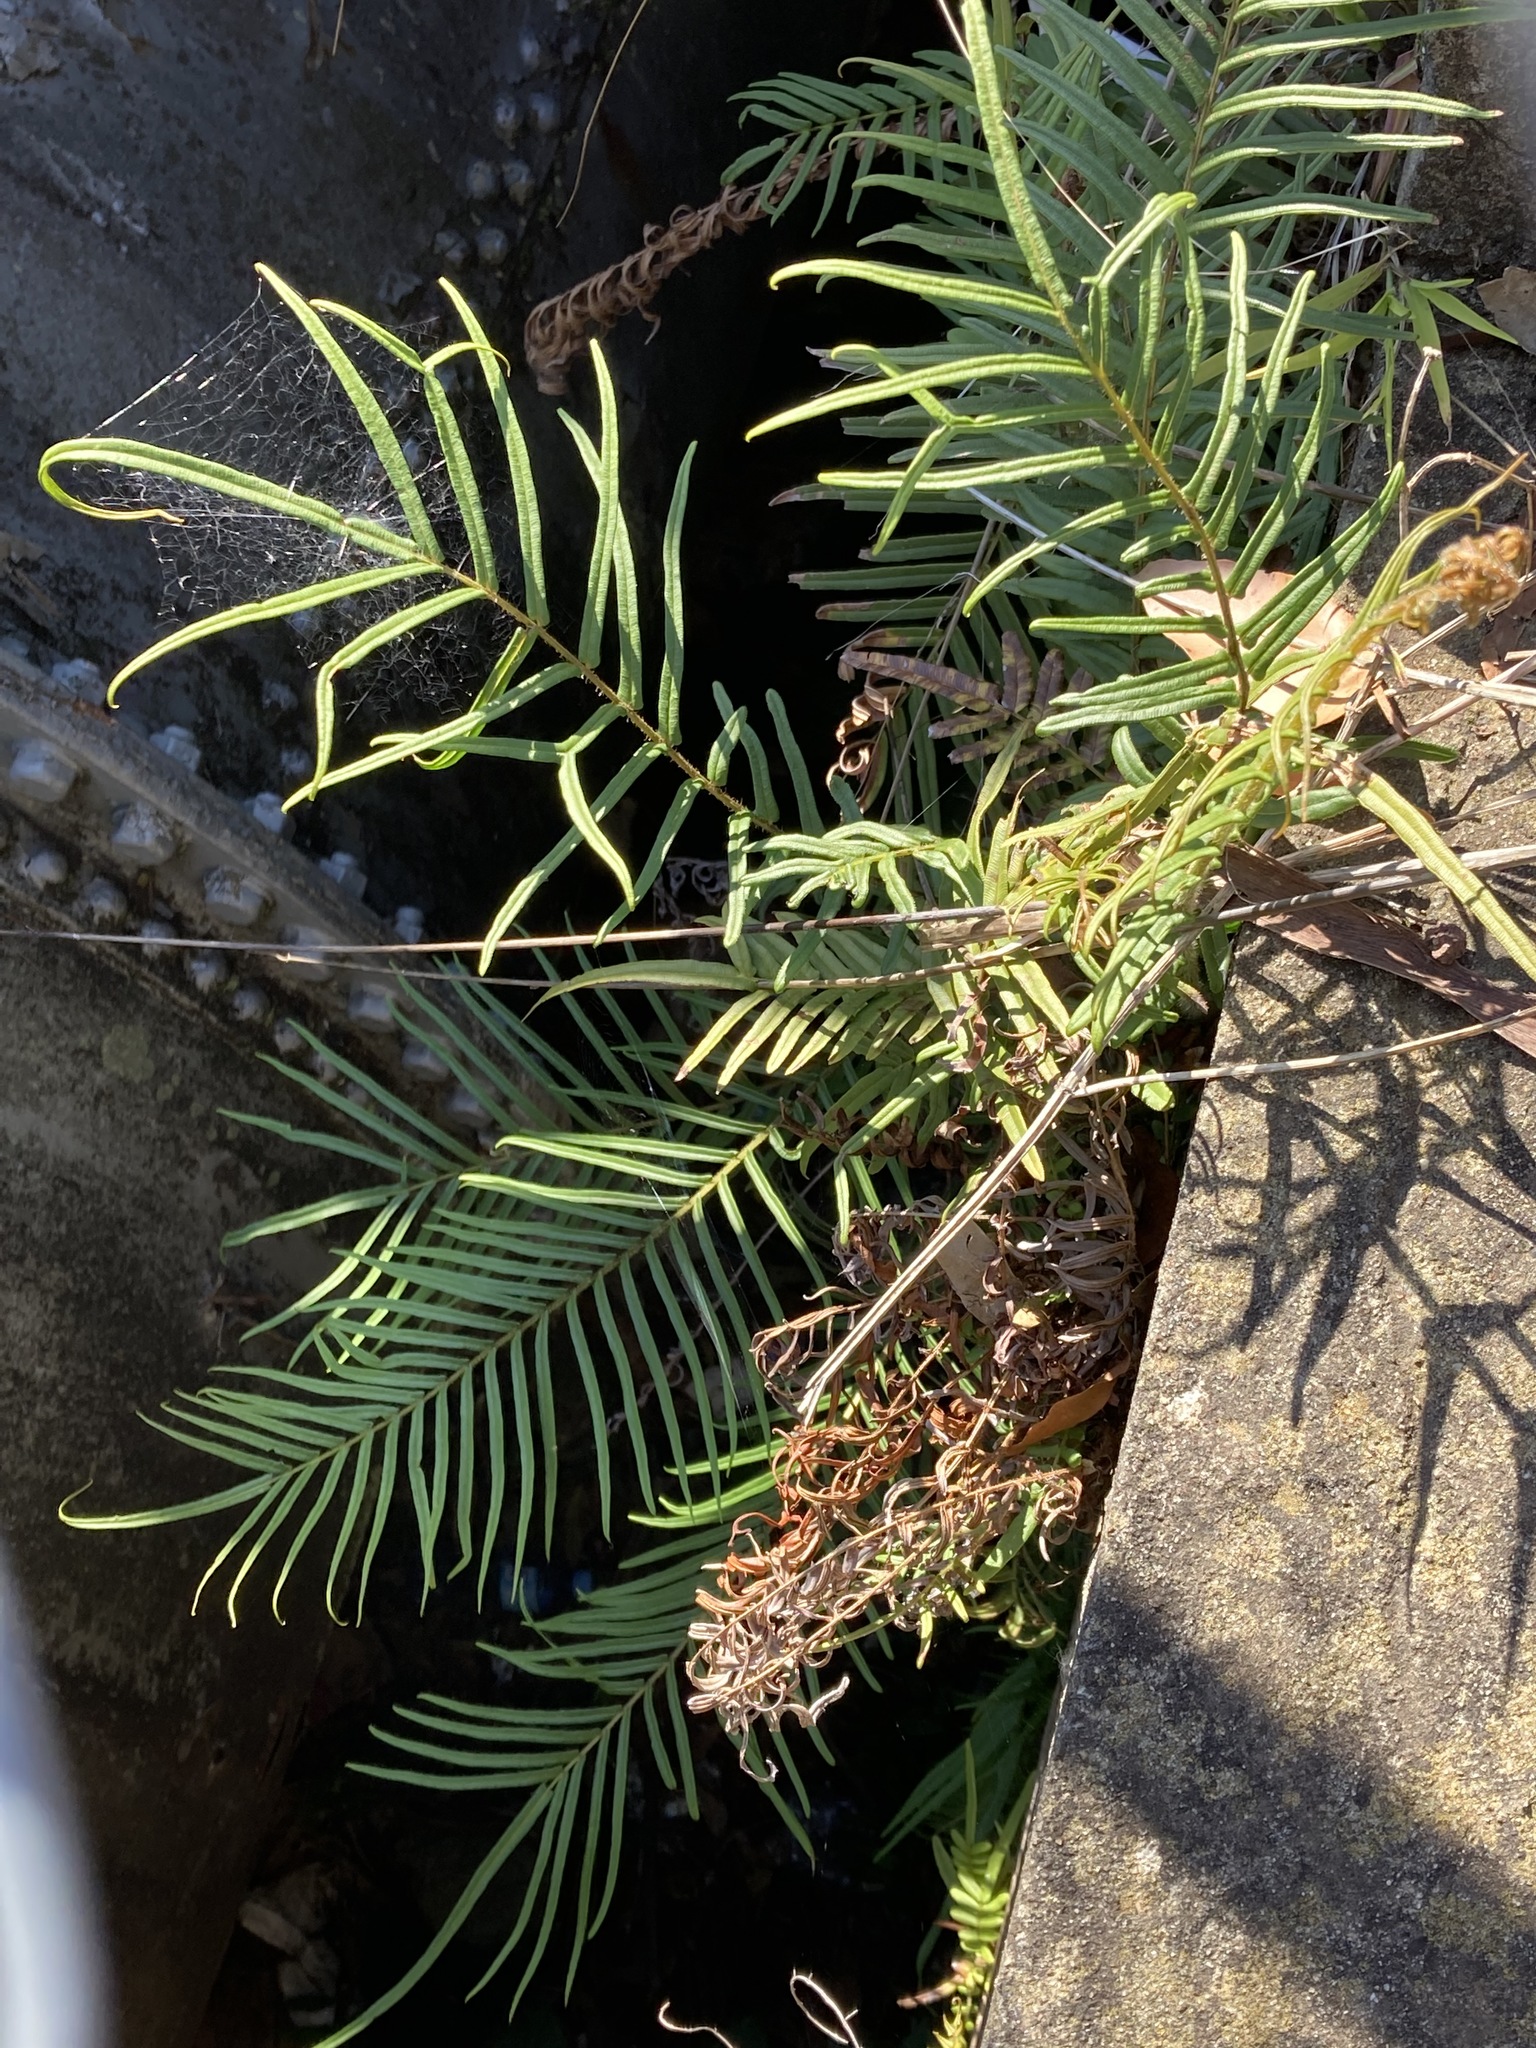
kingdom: Plantae
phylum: Tracheophyta
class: Polypodiopsida
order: Polypodiales
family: Pteridaceae
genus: Pteris
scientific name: Pteris vittata
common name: Ladder brake
